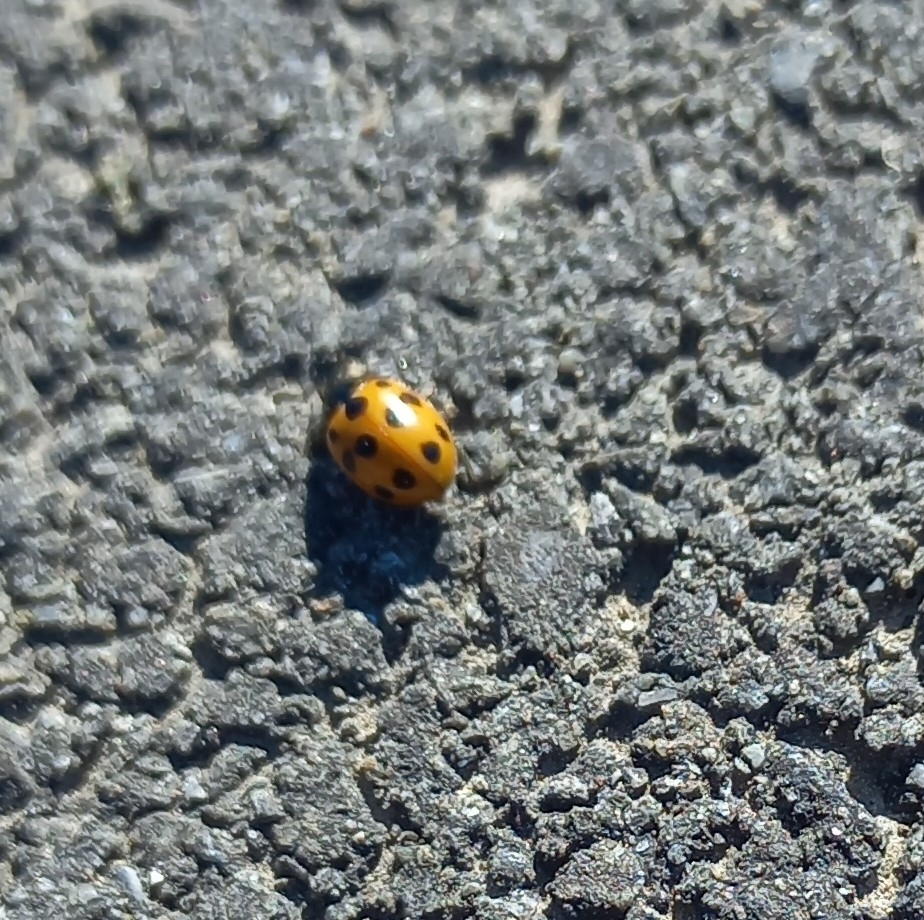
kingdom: Animalia
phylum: Arthropoda
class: Insecta
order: Coleoptera
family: Coccinellidae
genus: Coccinella
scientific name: Coccinella undecimpunctata
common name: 11-spot ladybird
